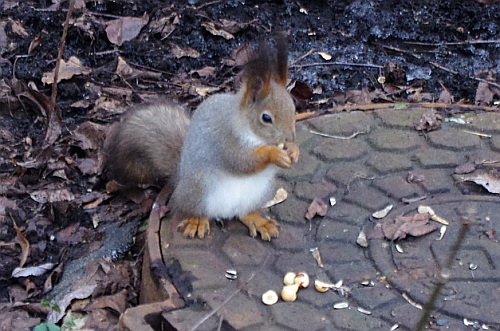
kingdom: Animalia
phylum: Chordata
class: Mammalia
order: Rodentia
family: Sciuridae
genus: Sciurus
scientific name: Sciurus vulgaris
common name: Eurasian red squirrel
